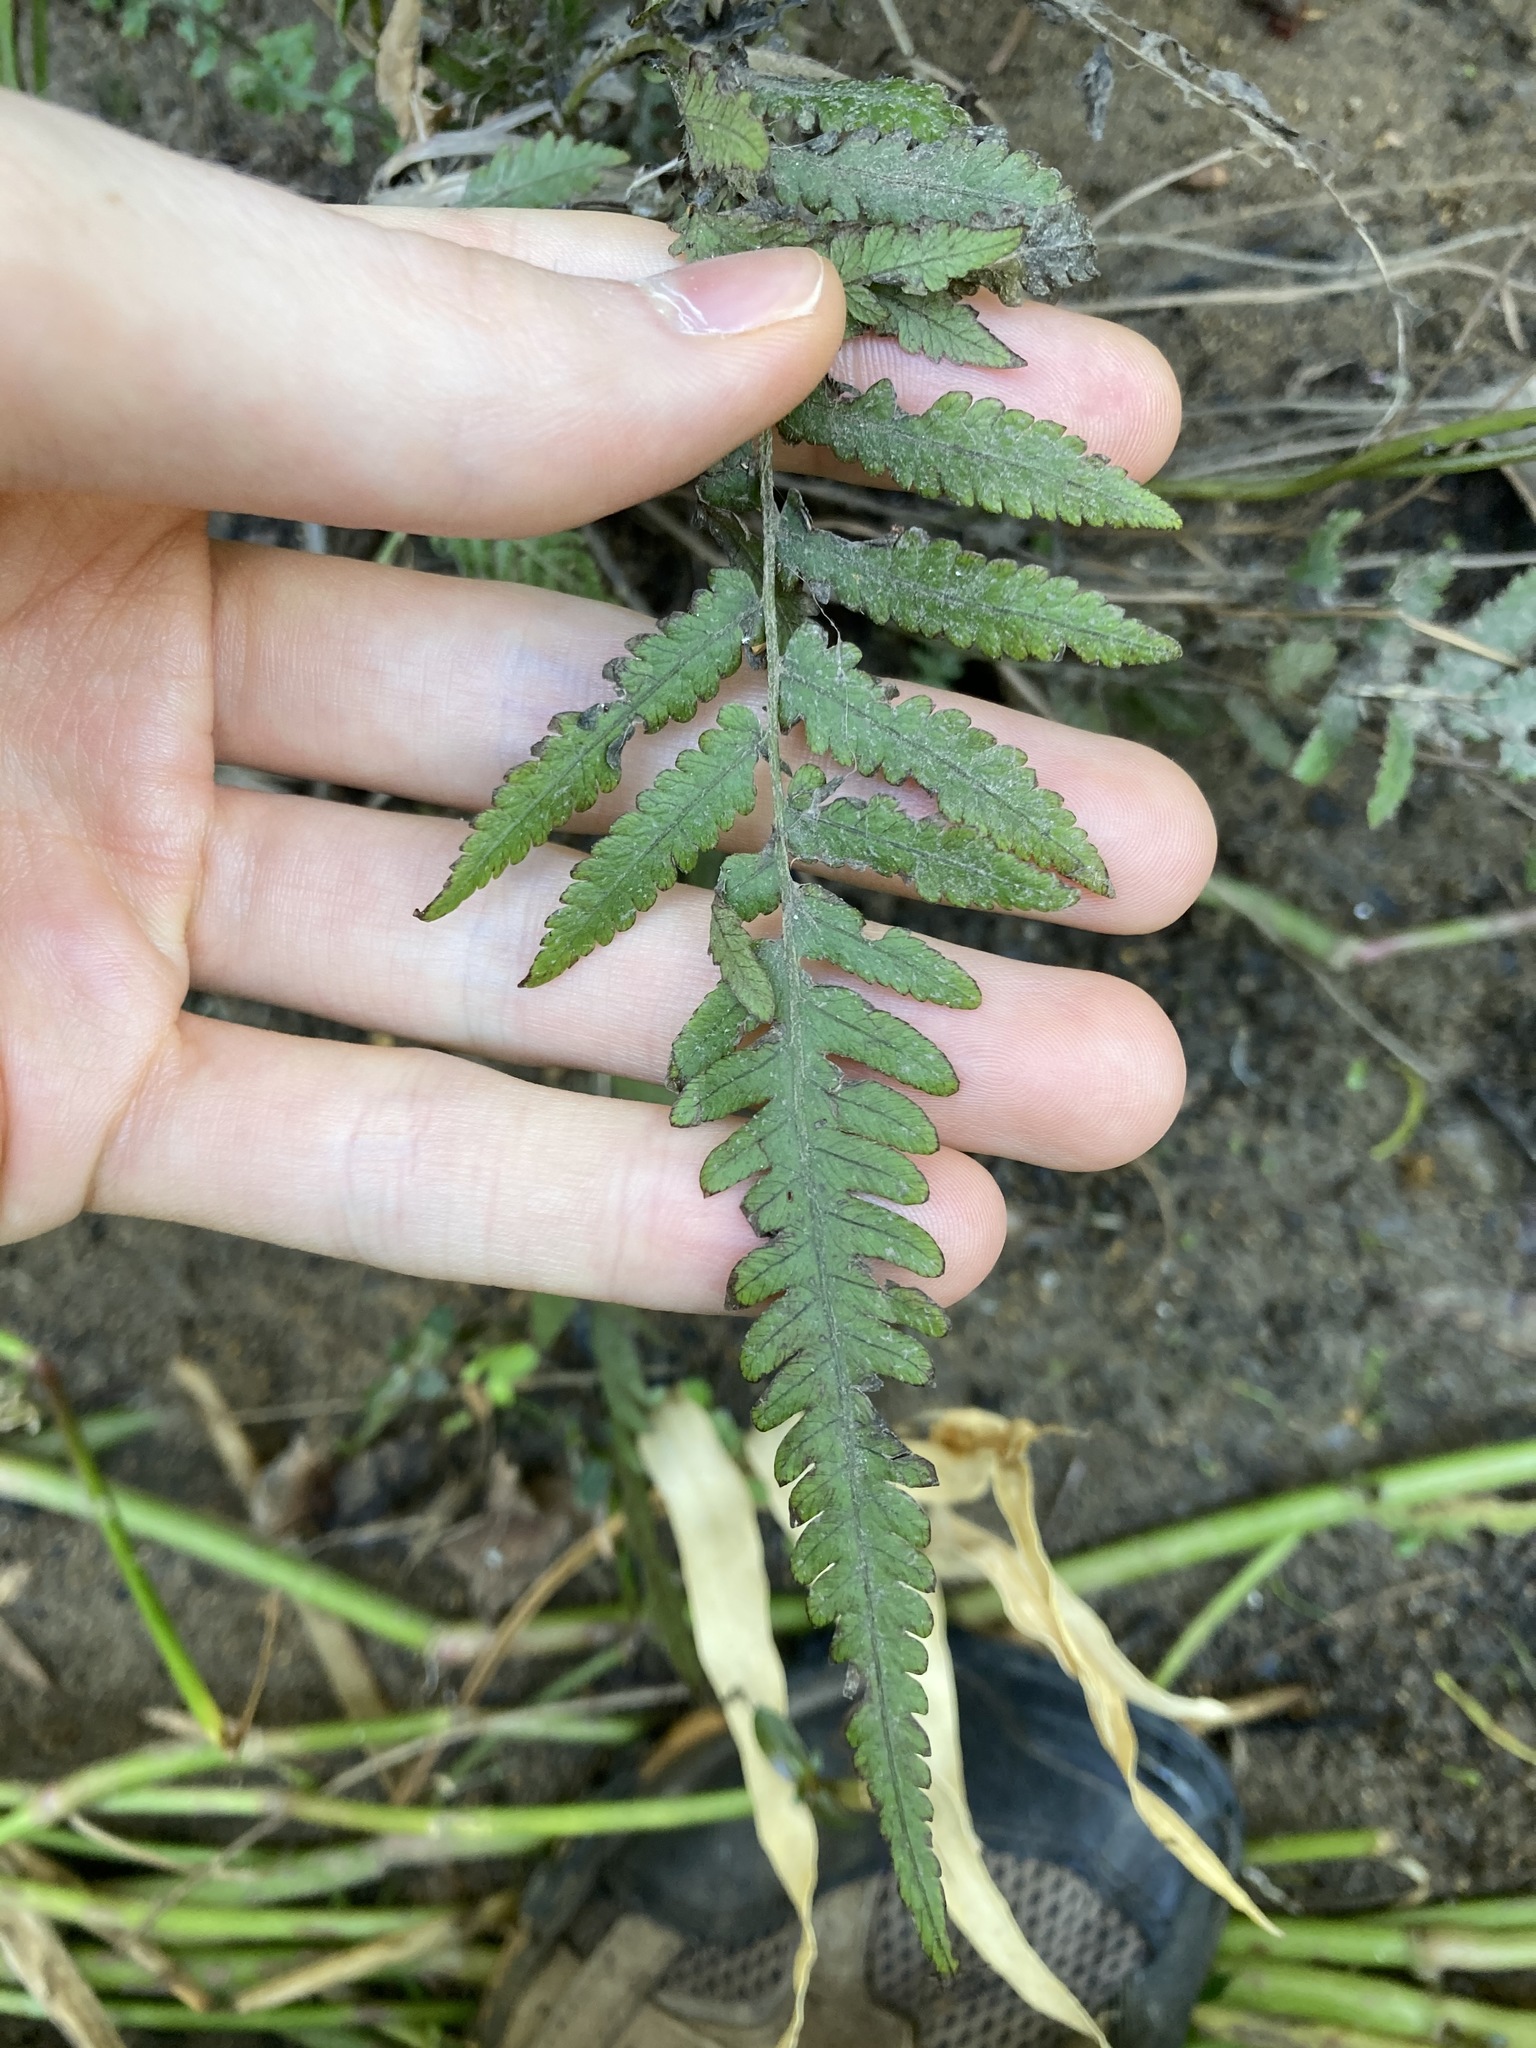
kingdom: Plantae
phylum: Tracheophyta
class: Polypodiopsida
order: Polypodiales
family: Thelypteridaceae
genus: Christella
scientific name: Christella dentata
